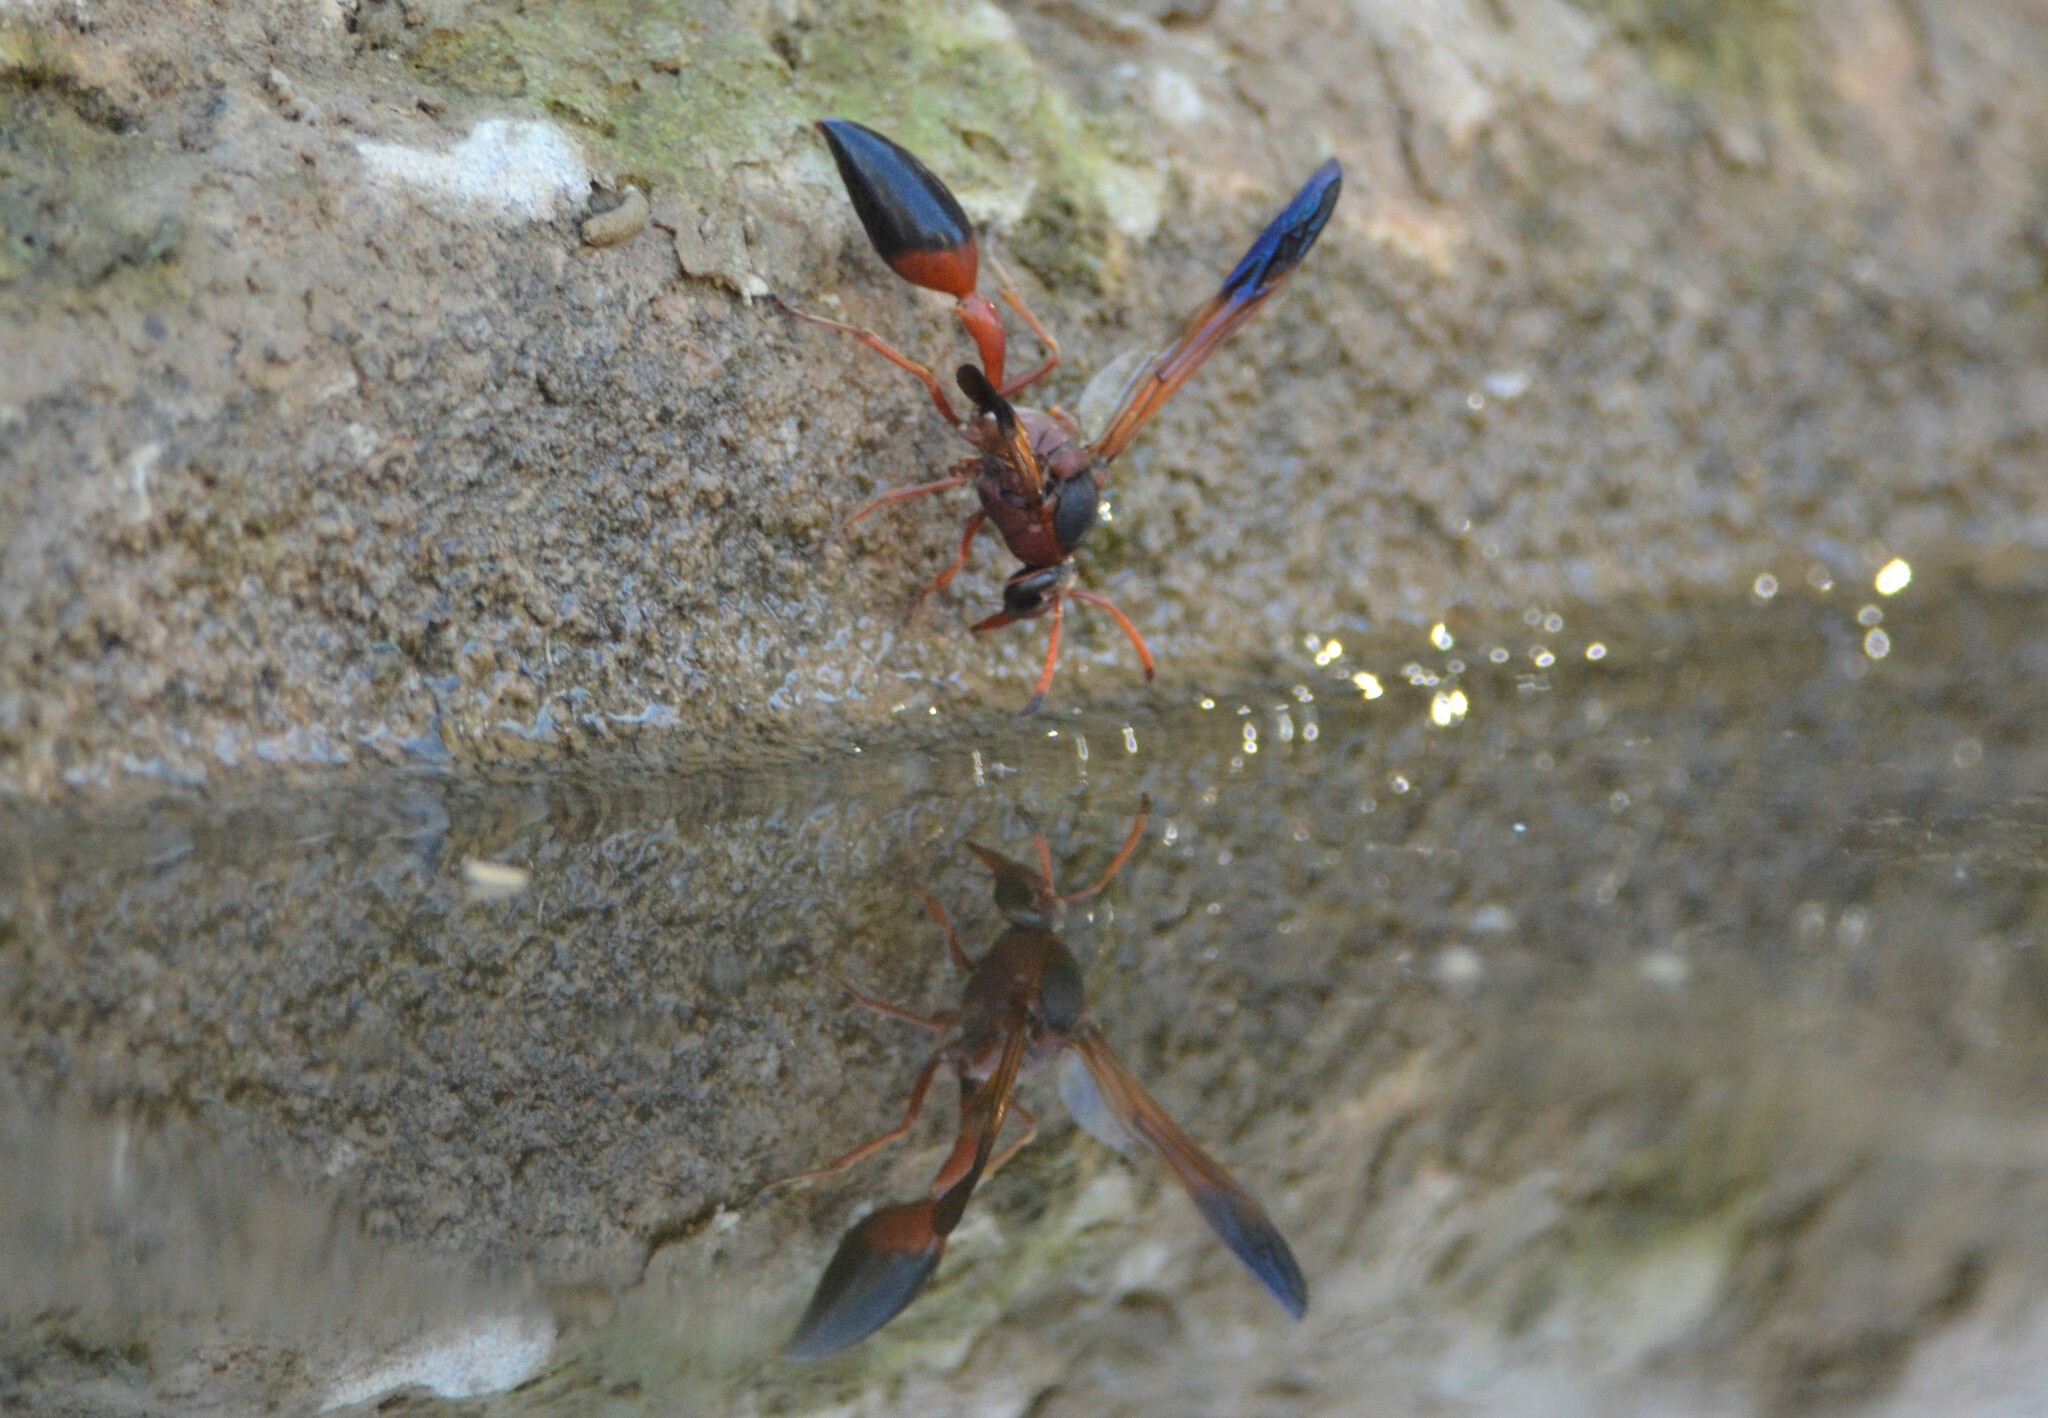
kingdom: Animalia
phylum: Arthropoda
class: Insecta
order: Hymenoptera
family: Eumenidae
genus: Delta
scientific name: Delta dimidiatipenne
